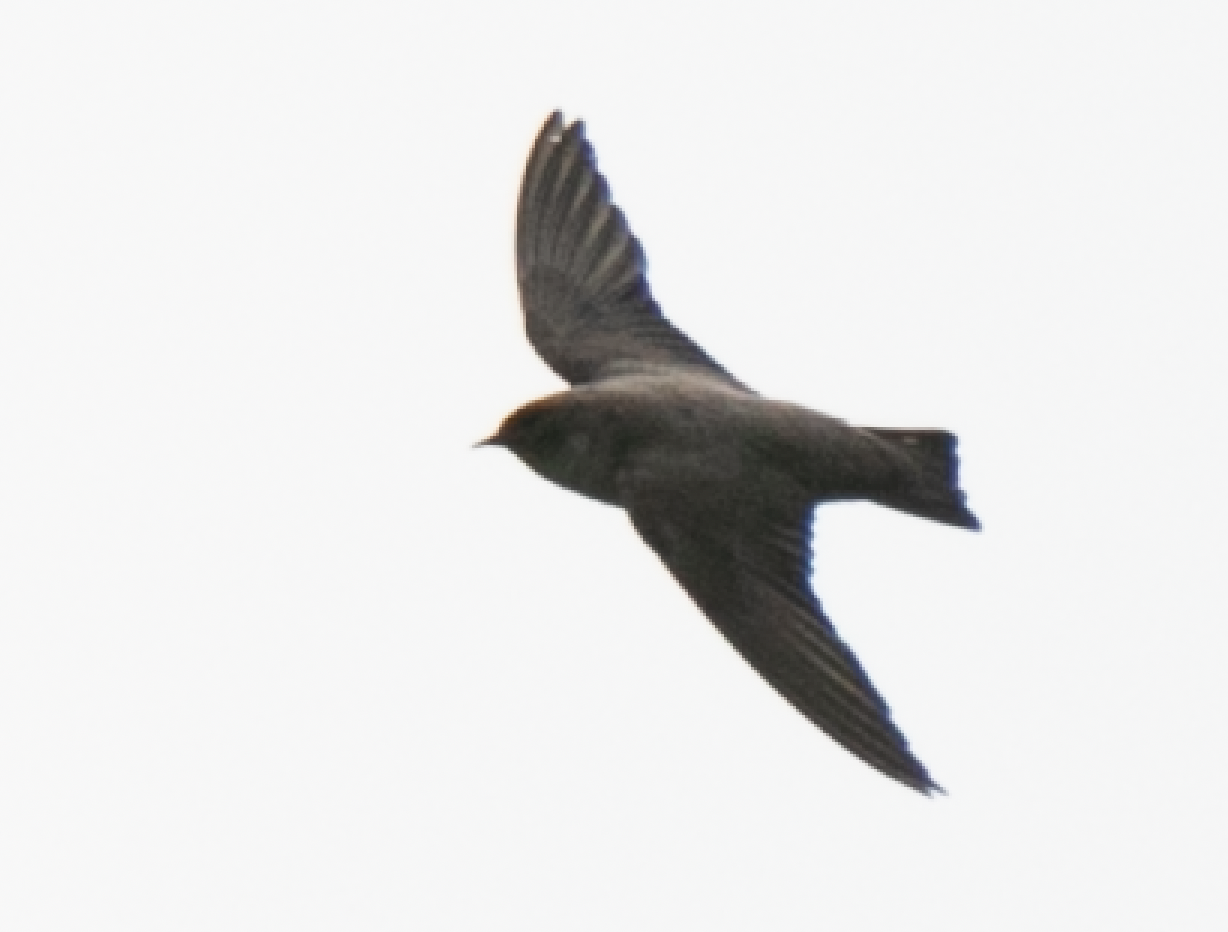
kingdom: Animalia
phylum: Chordata
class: Aves
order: Passeriformes
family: Hirundinidae
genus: Ptyonoprogne
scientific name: Ptyonoprogne rupestris
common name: Eurasian crag martin
